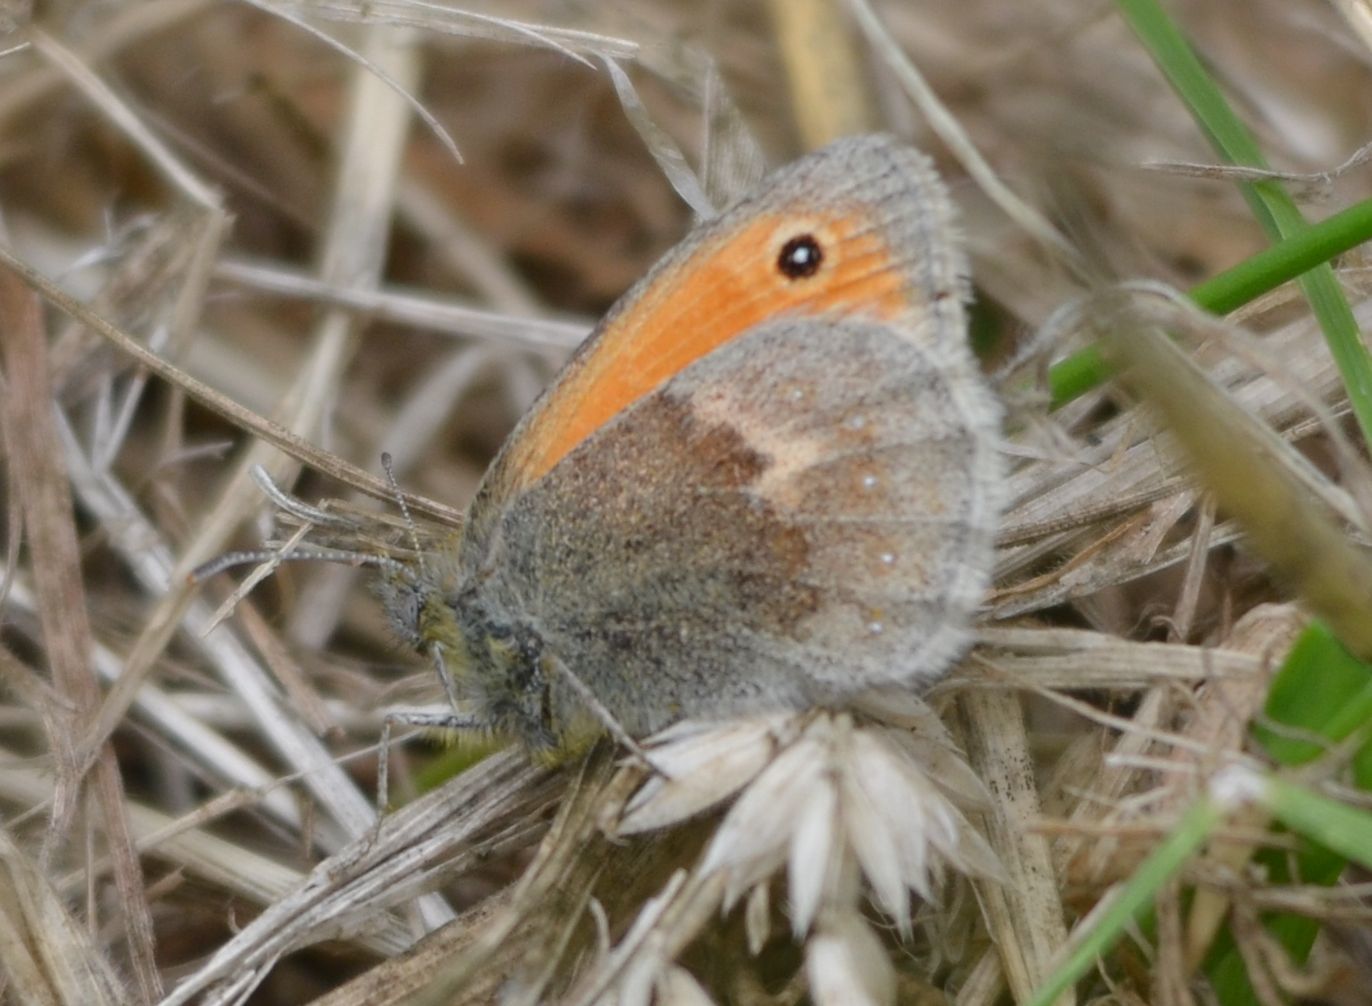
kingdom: Animalia
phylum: Arthropoda
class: Insecta
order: Lepidoptera
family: Nymphalidae
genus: Coenonympha
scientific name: Coenonympha pamphilus
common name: Small heath
